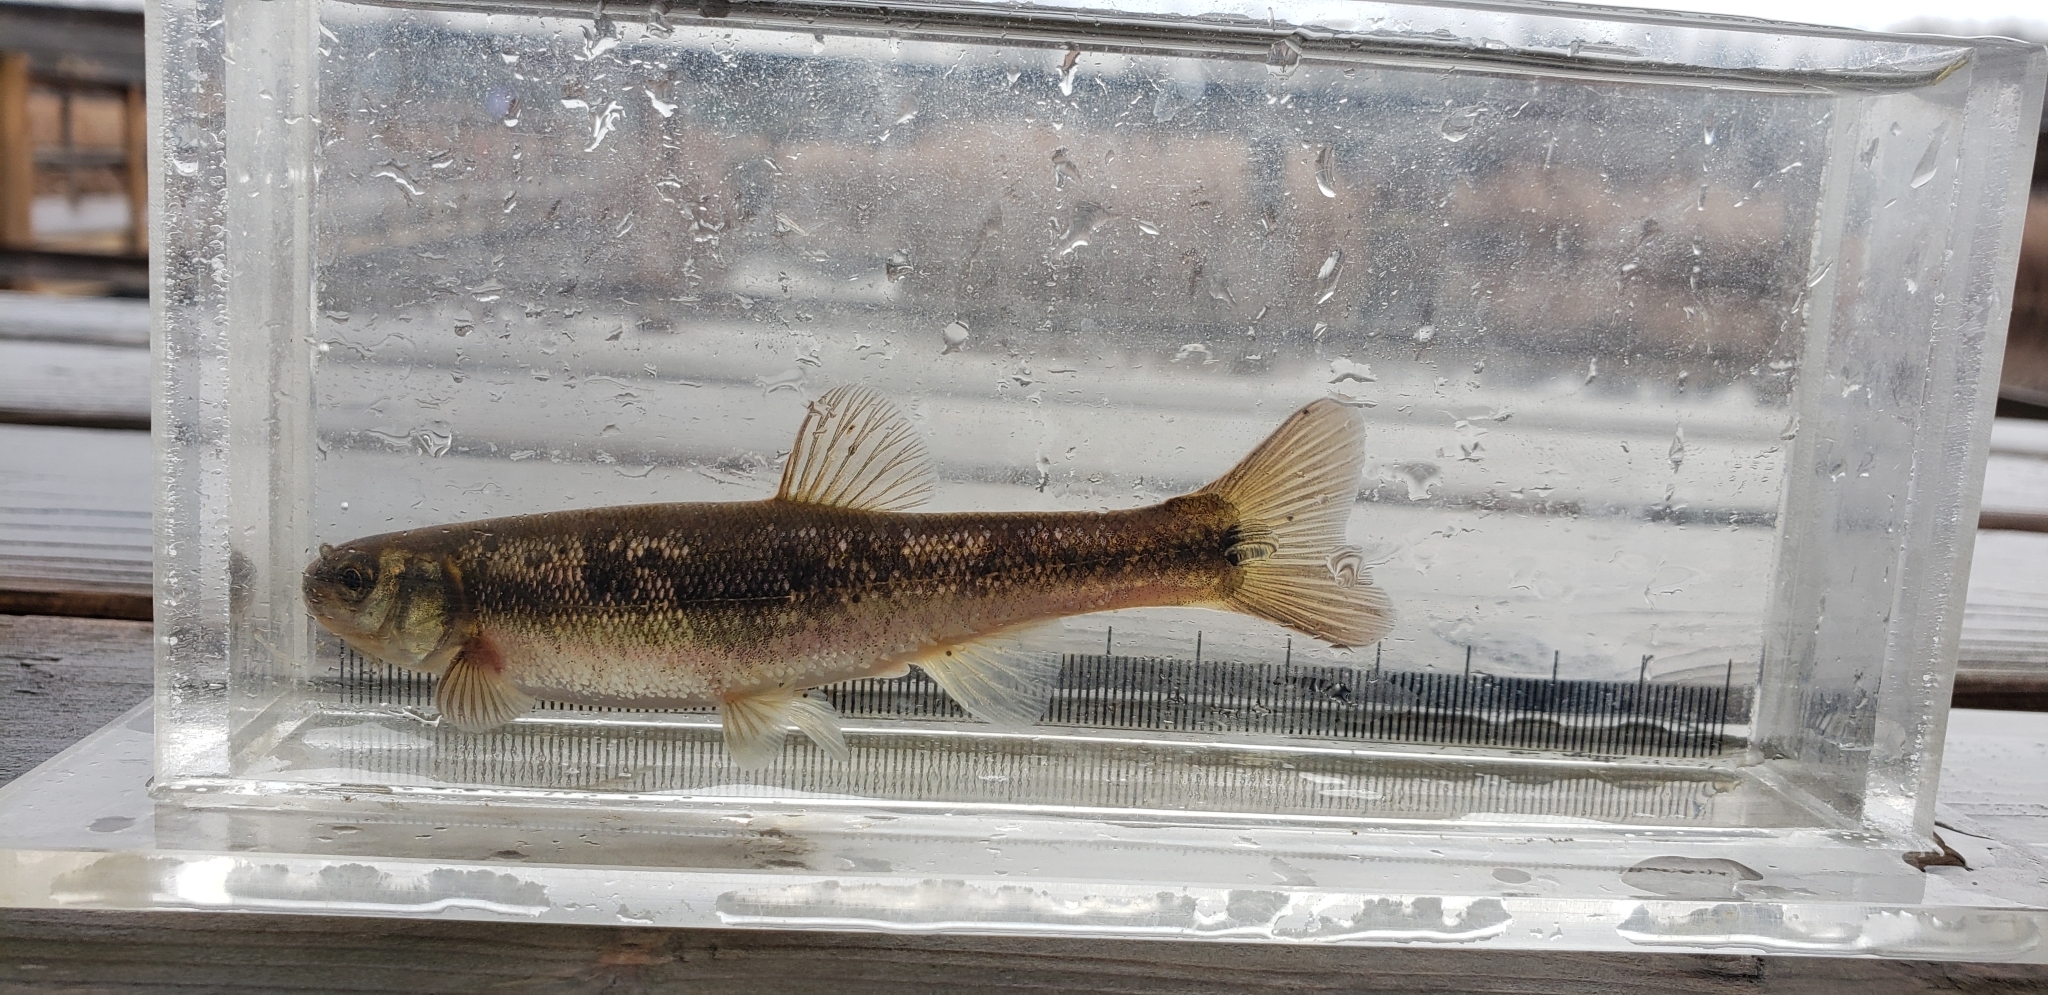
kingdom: Animalia
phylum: Chordata
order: Cypriniformes
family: Cyprinidae
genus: Margariscus
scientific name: Margariscus nachtriebi
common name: Northern pearl dace
